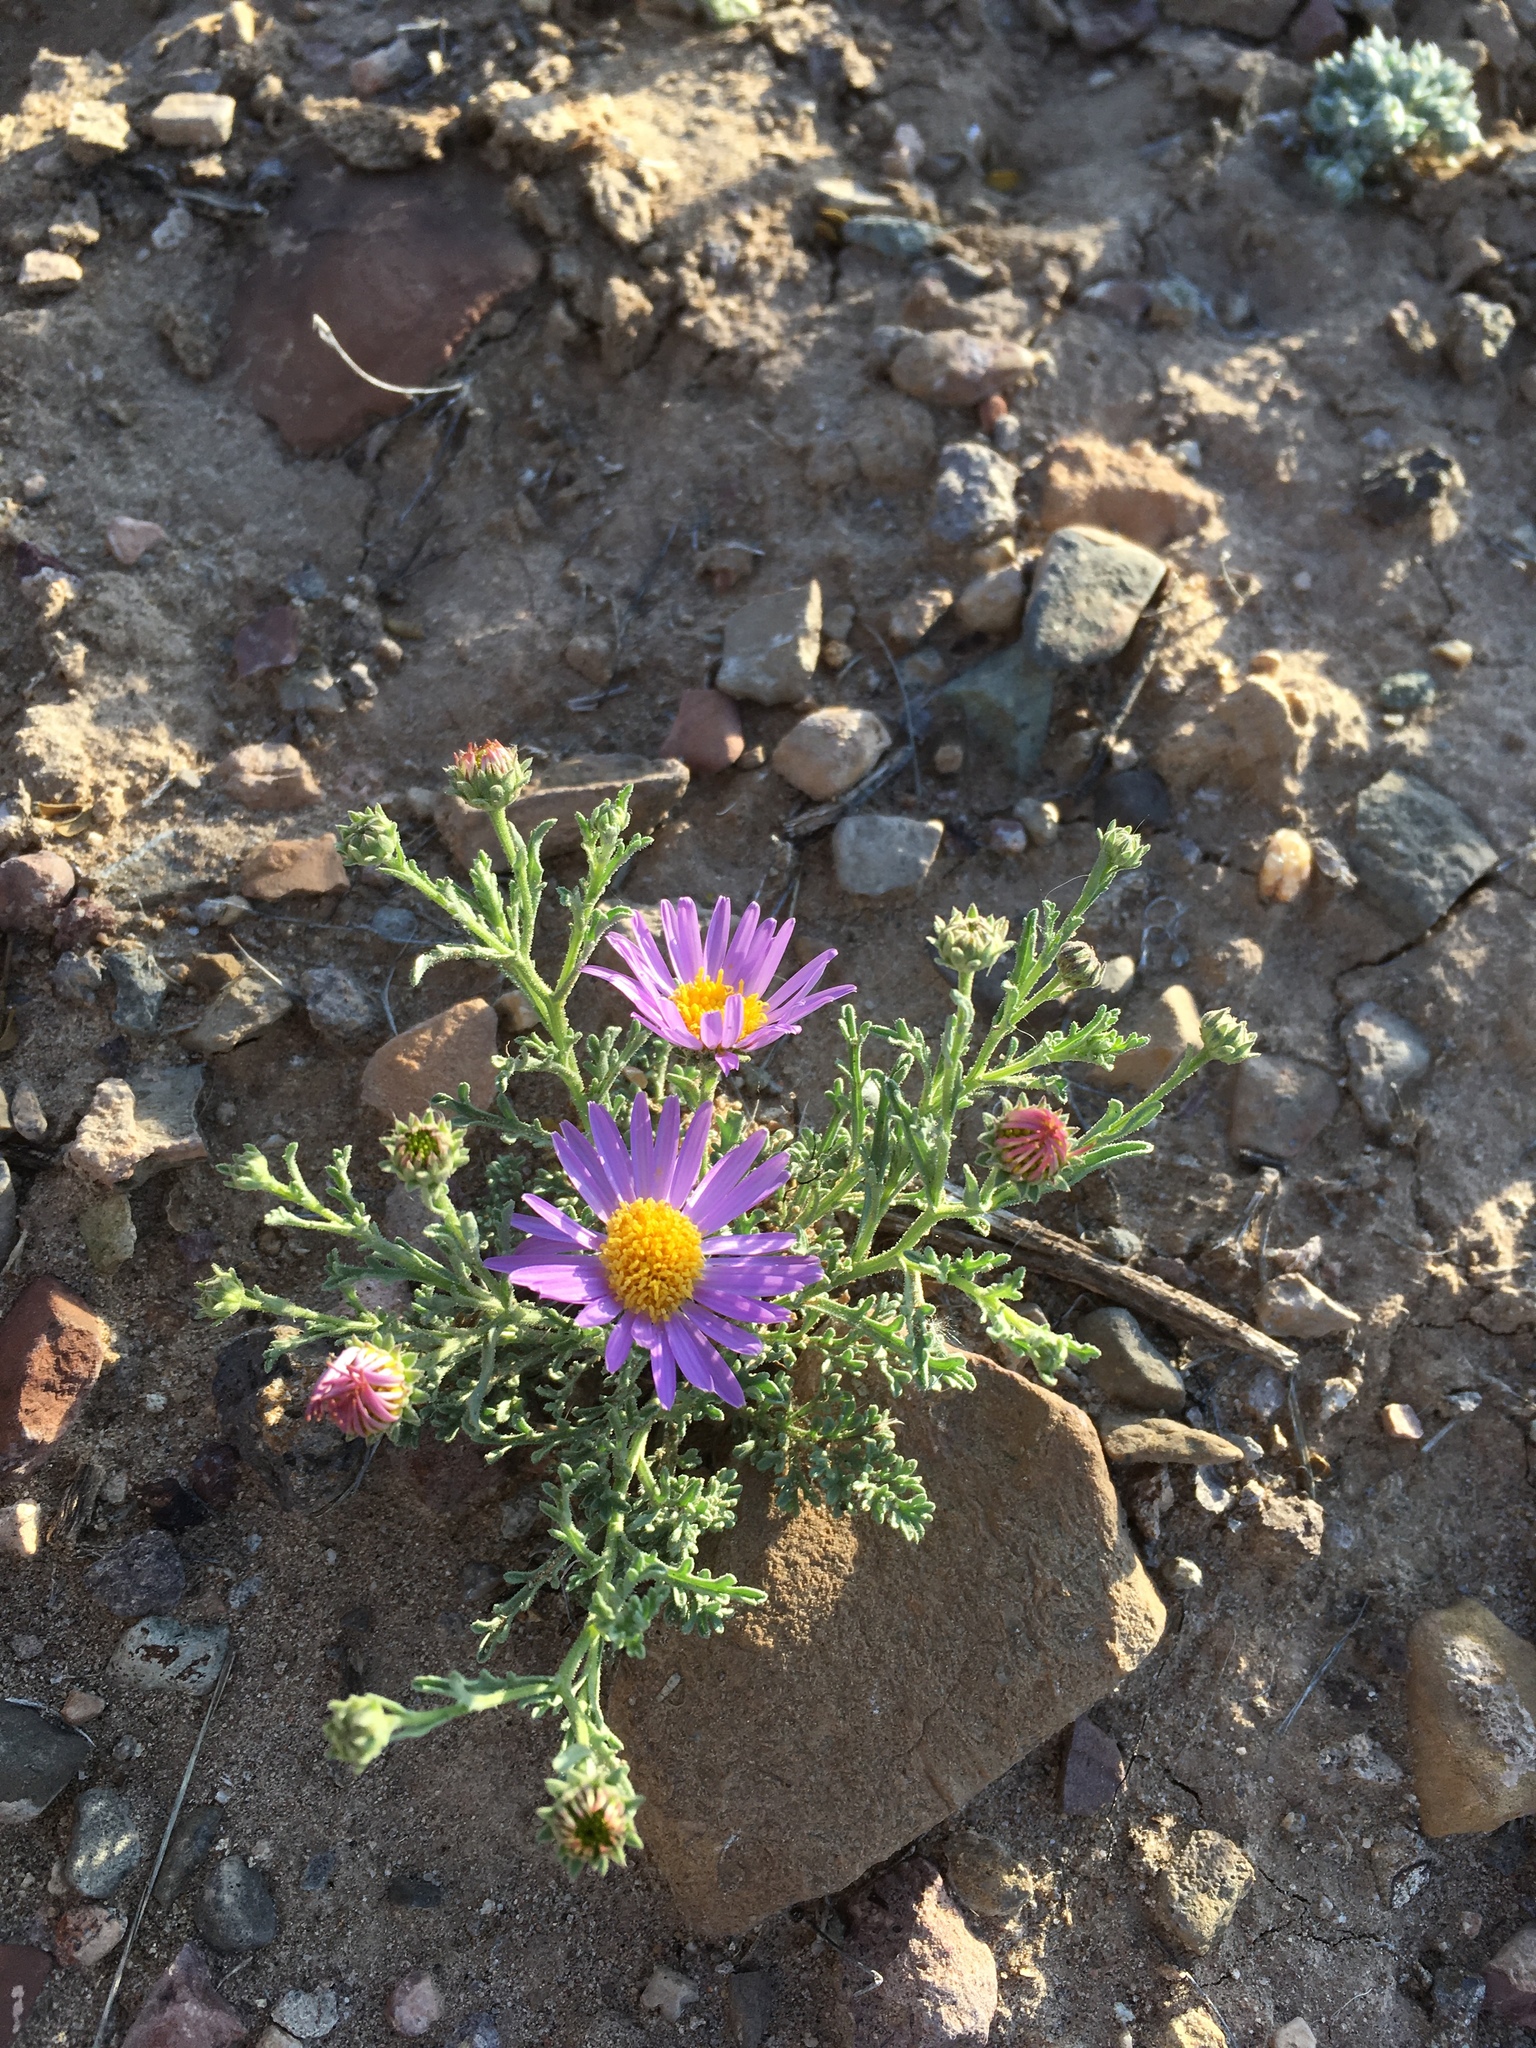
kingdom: Plantae
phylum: Tracheophyta
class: Magnoliopsida
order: Asterales
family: Asteraceae
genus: Machaeranthera
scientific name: Machaeranthera tanacetifolia
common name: Tansy-aster
